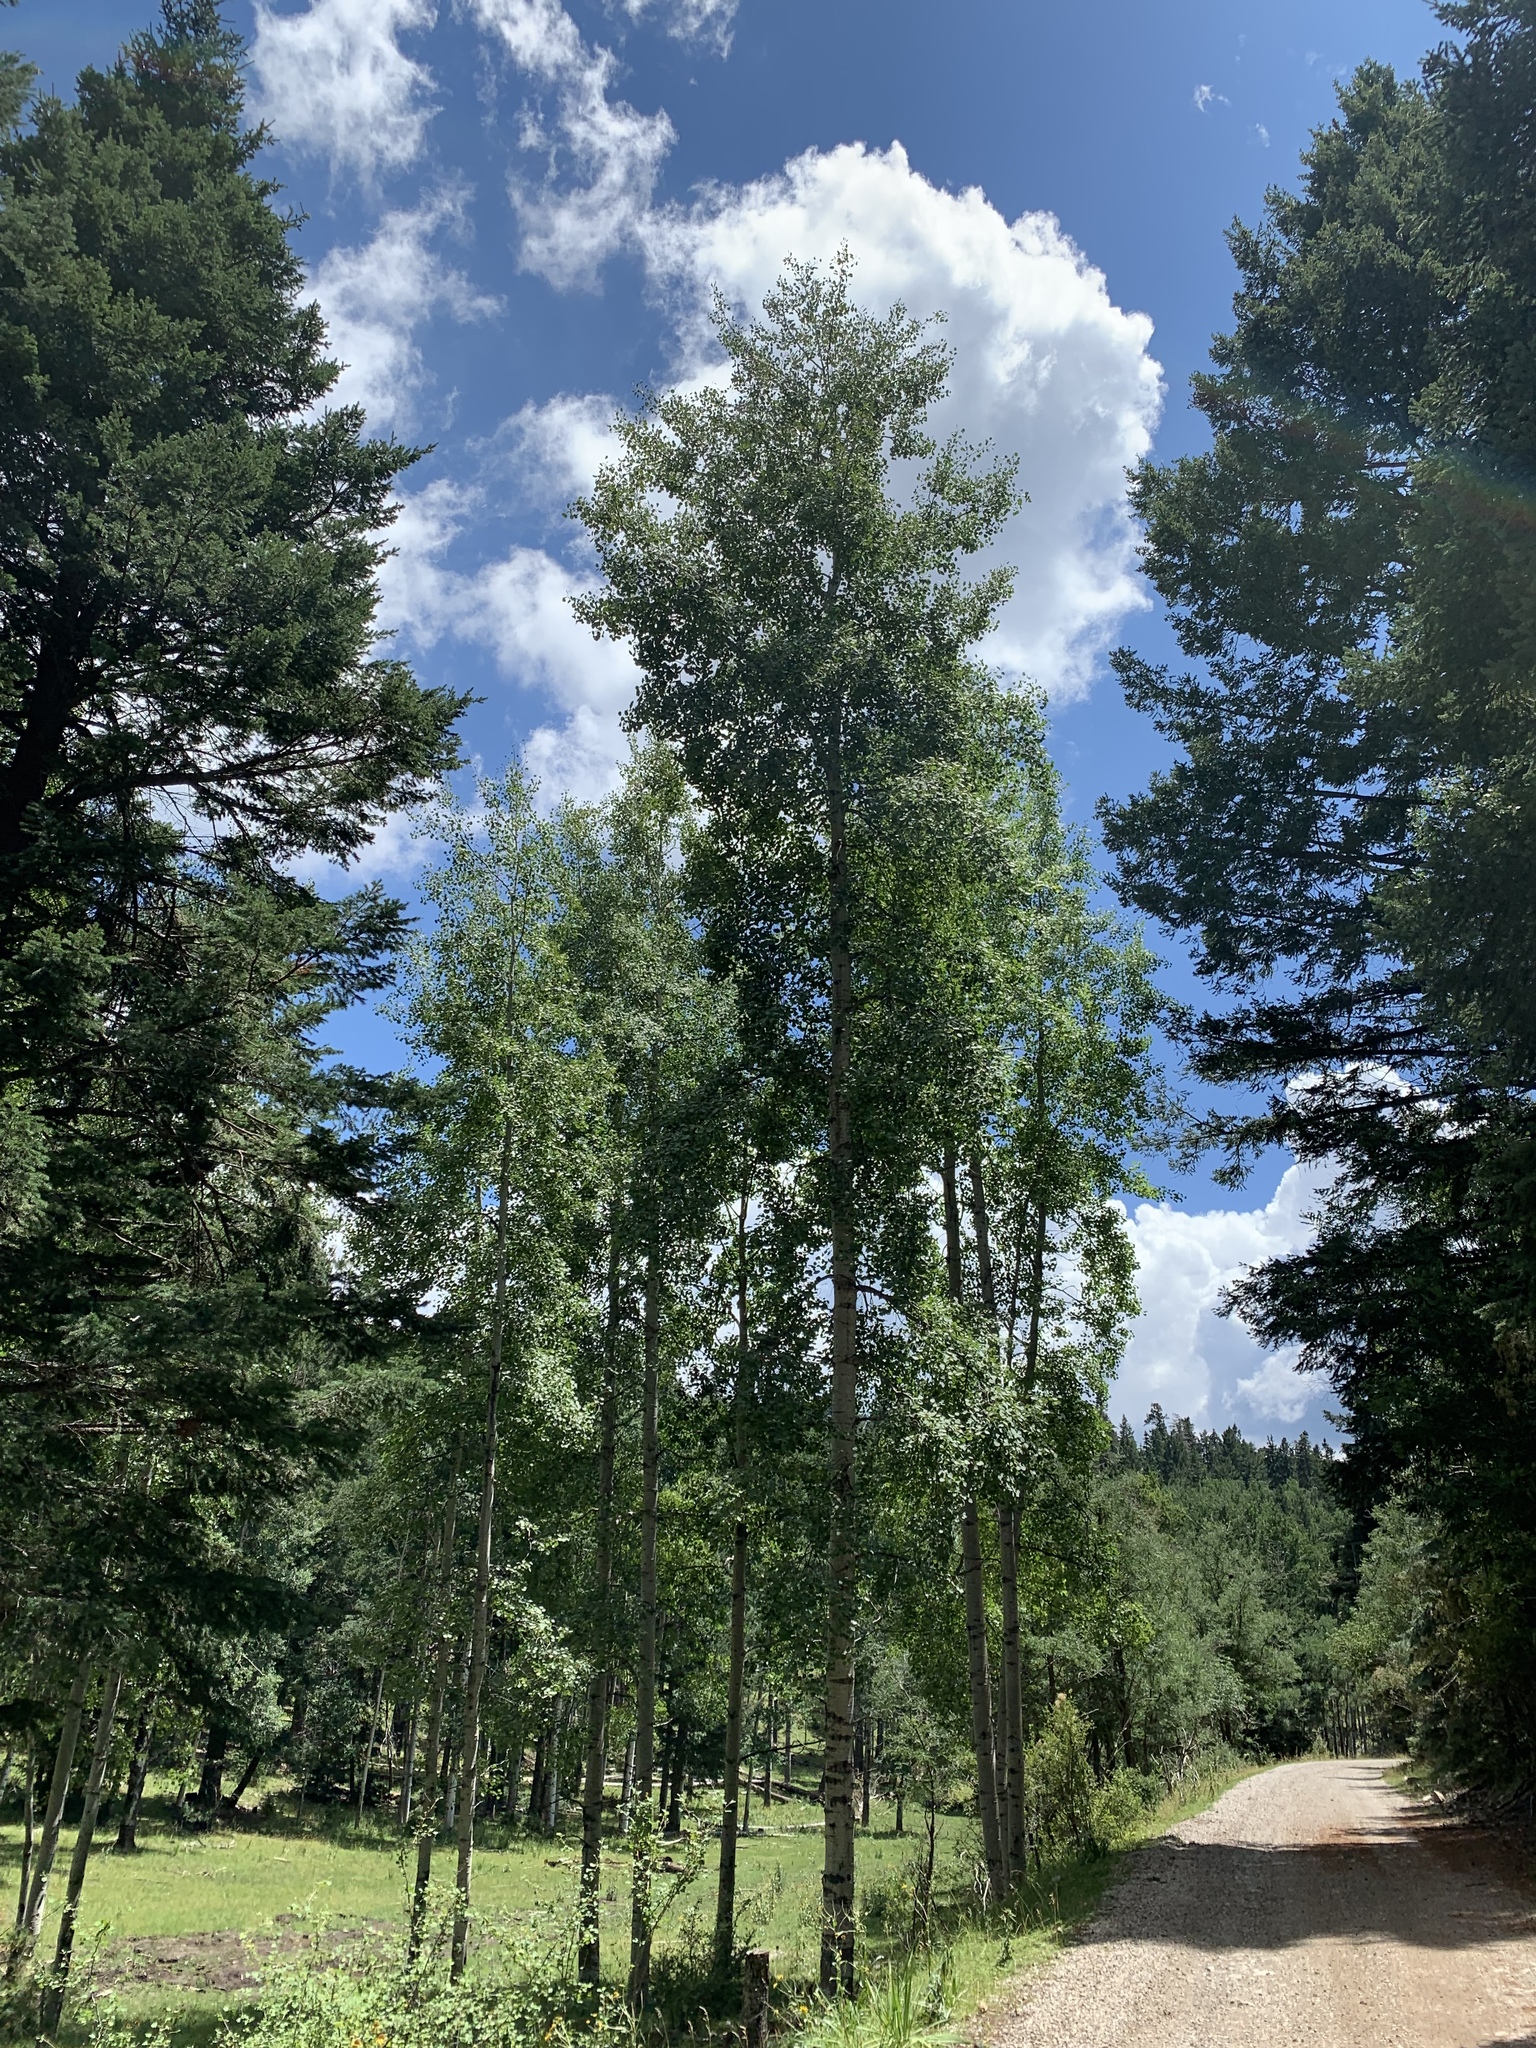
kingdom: Plantae
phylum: Tracheophyta
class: Magnoliopsida
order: Malpighiales
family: Salicaceae
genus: Populus
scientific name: Populus tremuloides
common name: Quaking aspen
